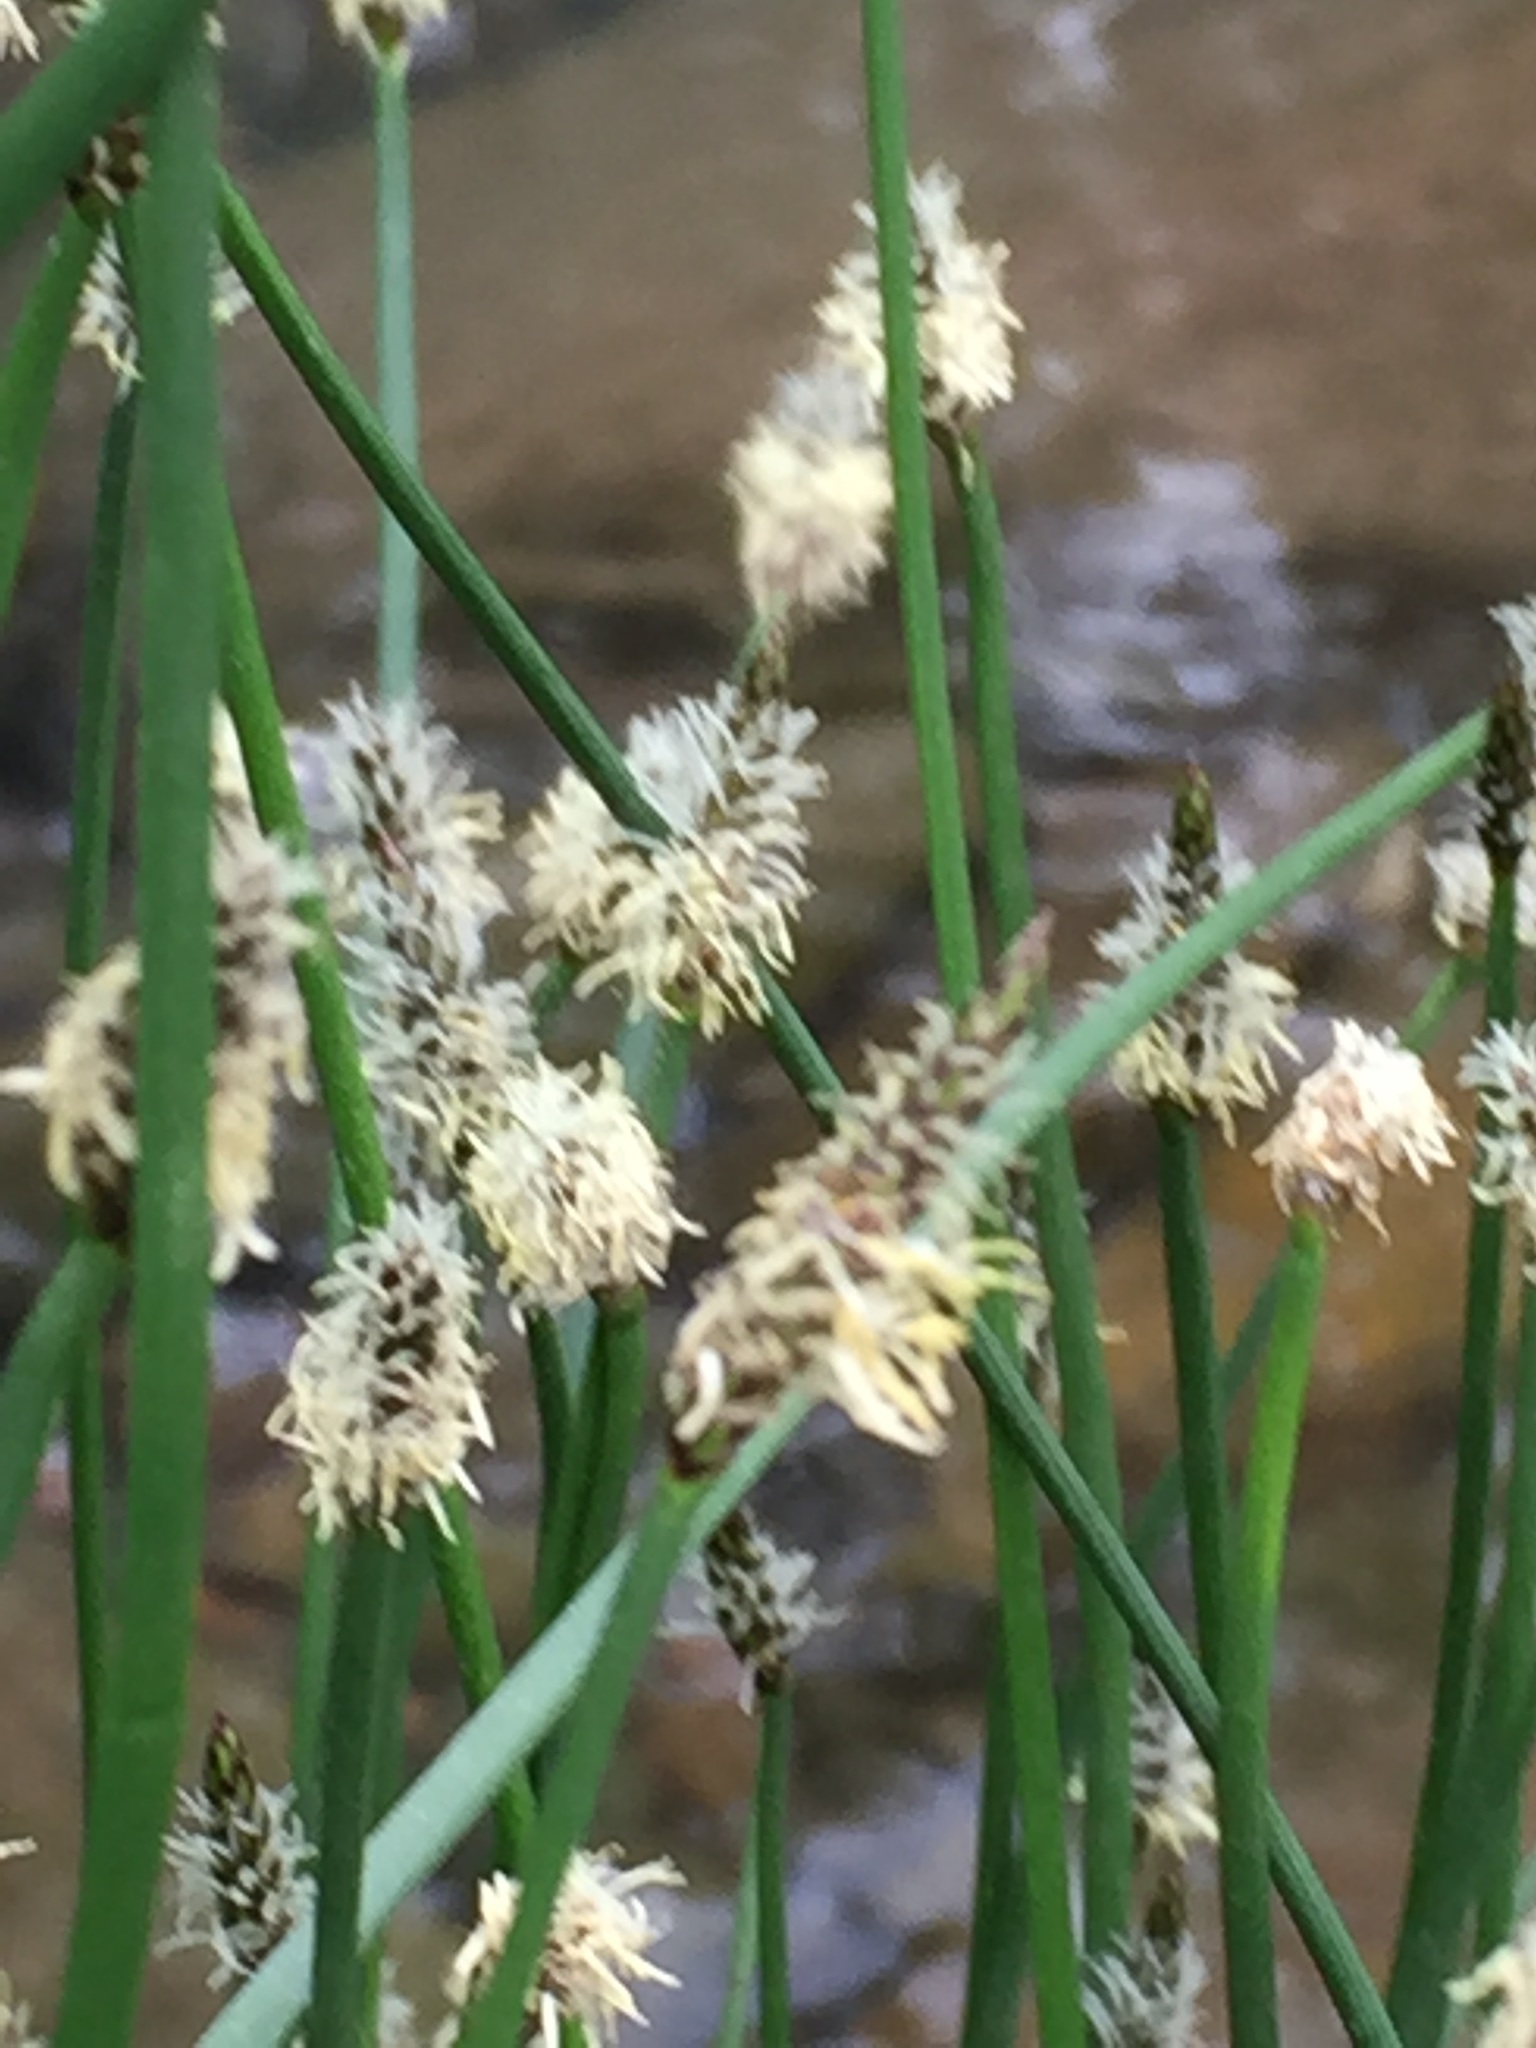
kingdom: Plantae
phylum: Tracheophyta
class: Liliopsida
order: Poales
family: Cyperaceae
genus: Eleocharis
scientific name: Eleocharis palustris
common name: Common spike-rush
